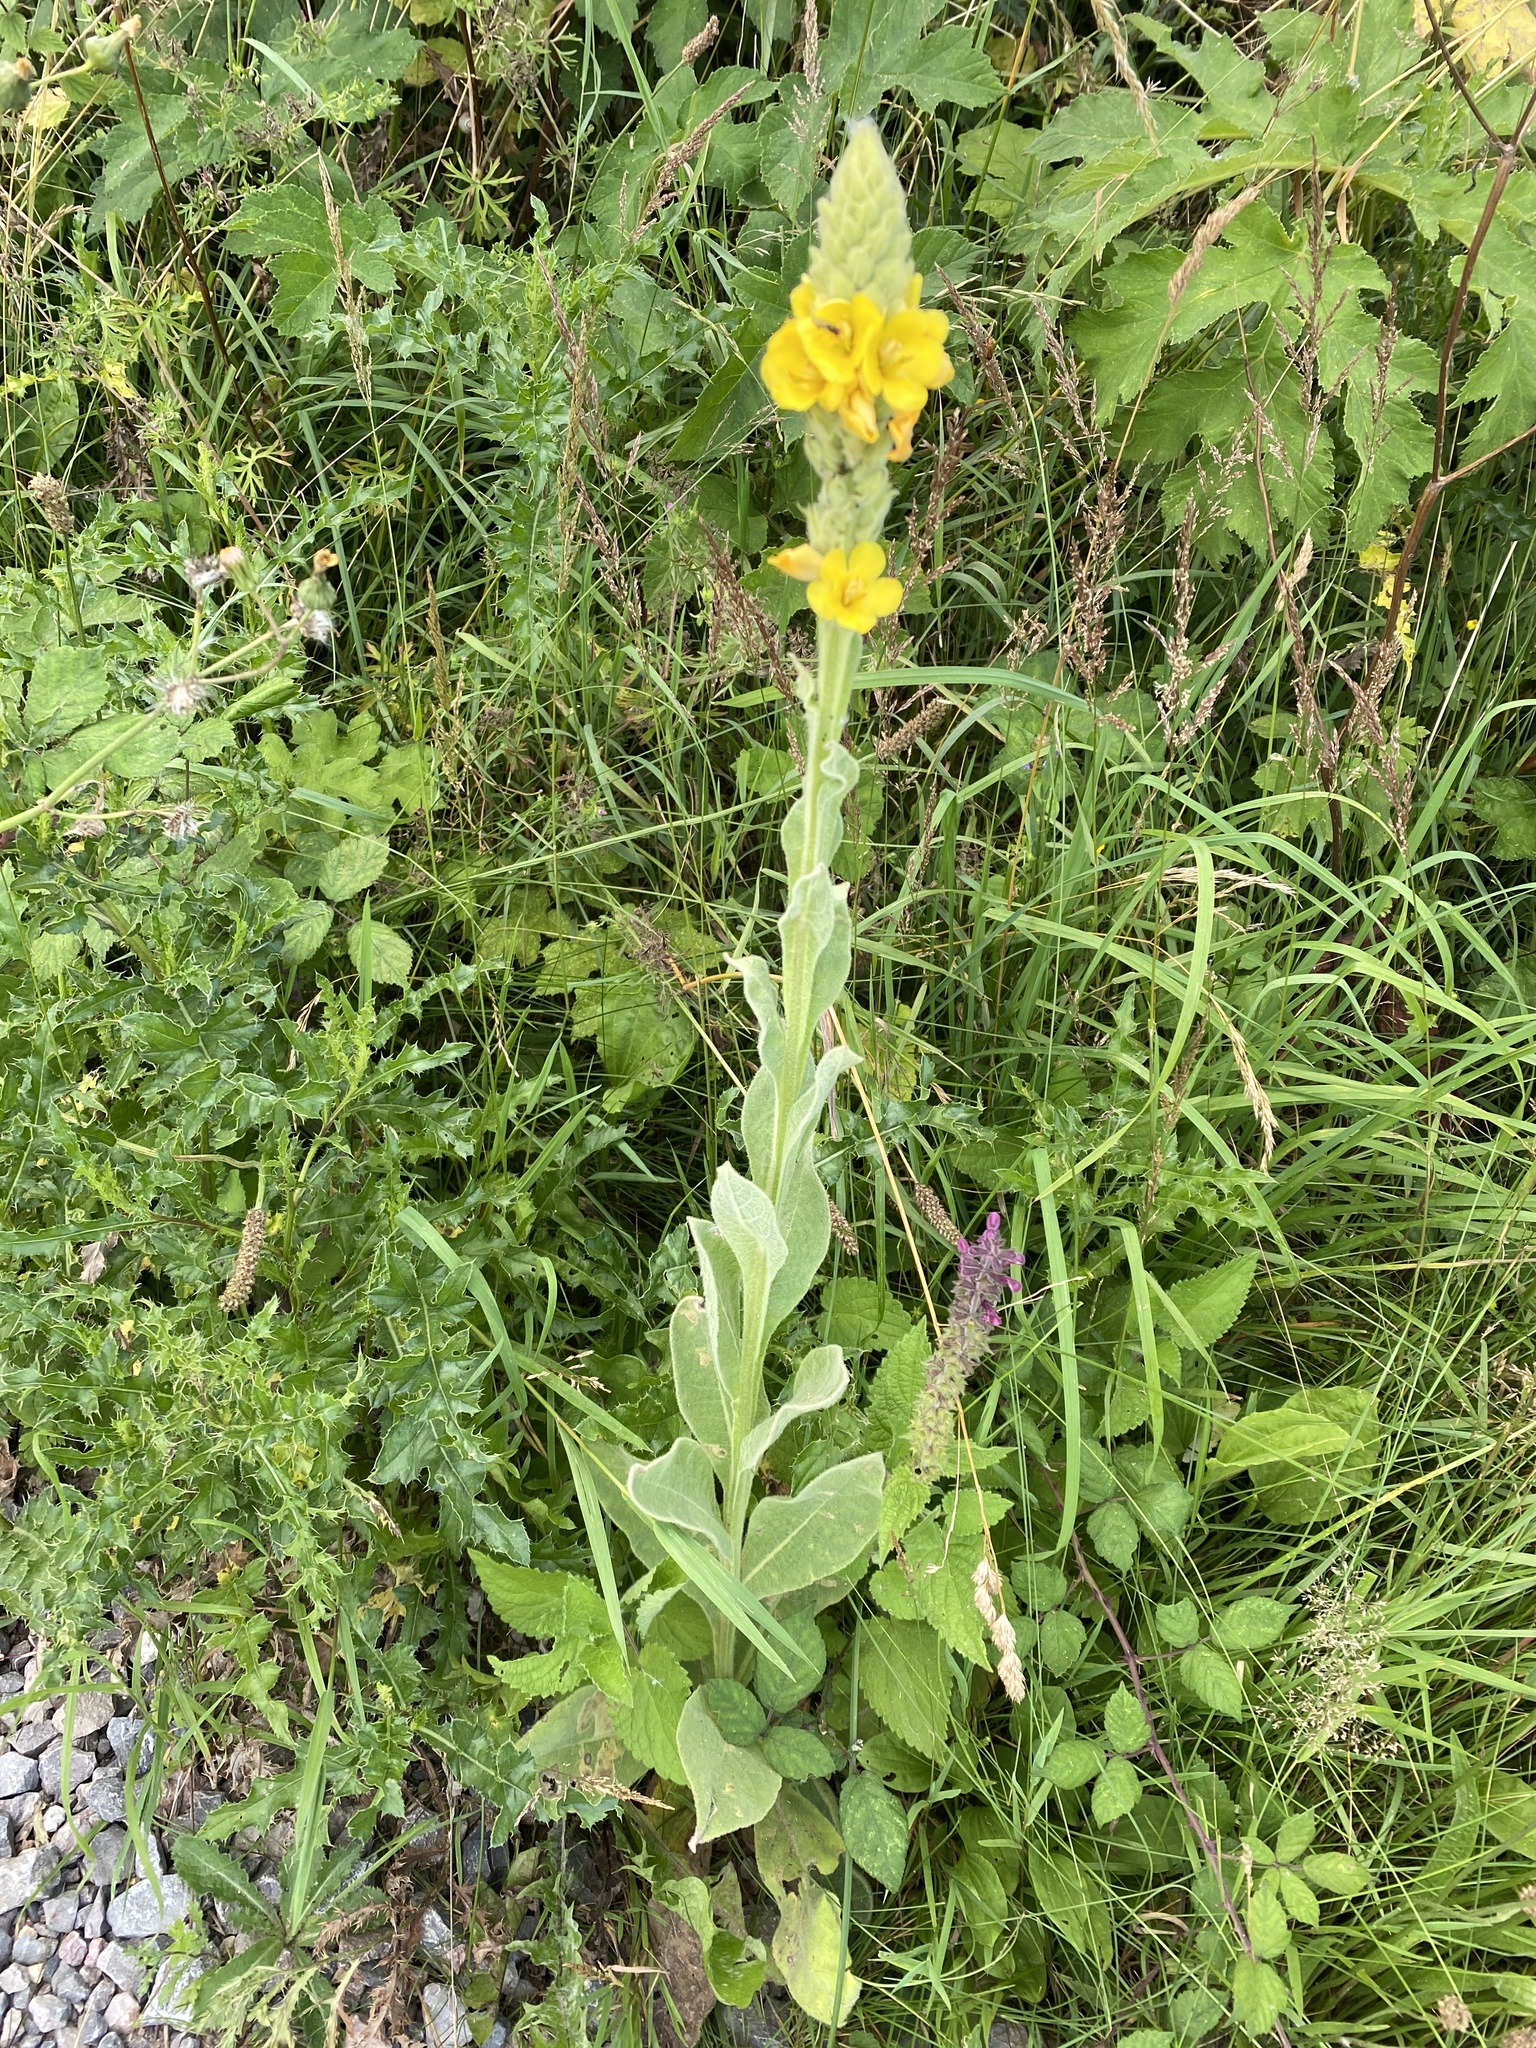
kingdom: Plantae
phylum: Tracheophyta
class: Magnoliopsida
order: Lamiales
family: Scrophulariaceae
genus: Verbascum
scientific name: Verbascum thapsus
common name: Common mullein
